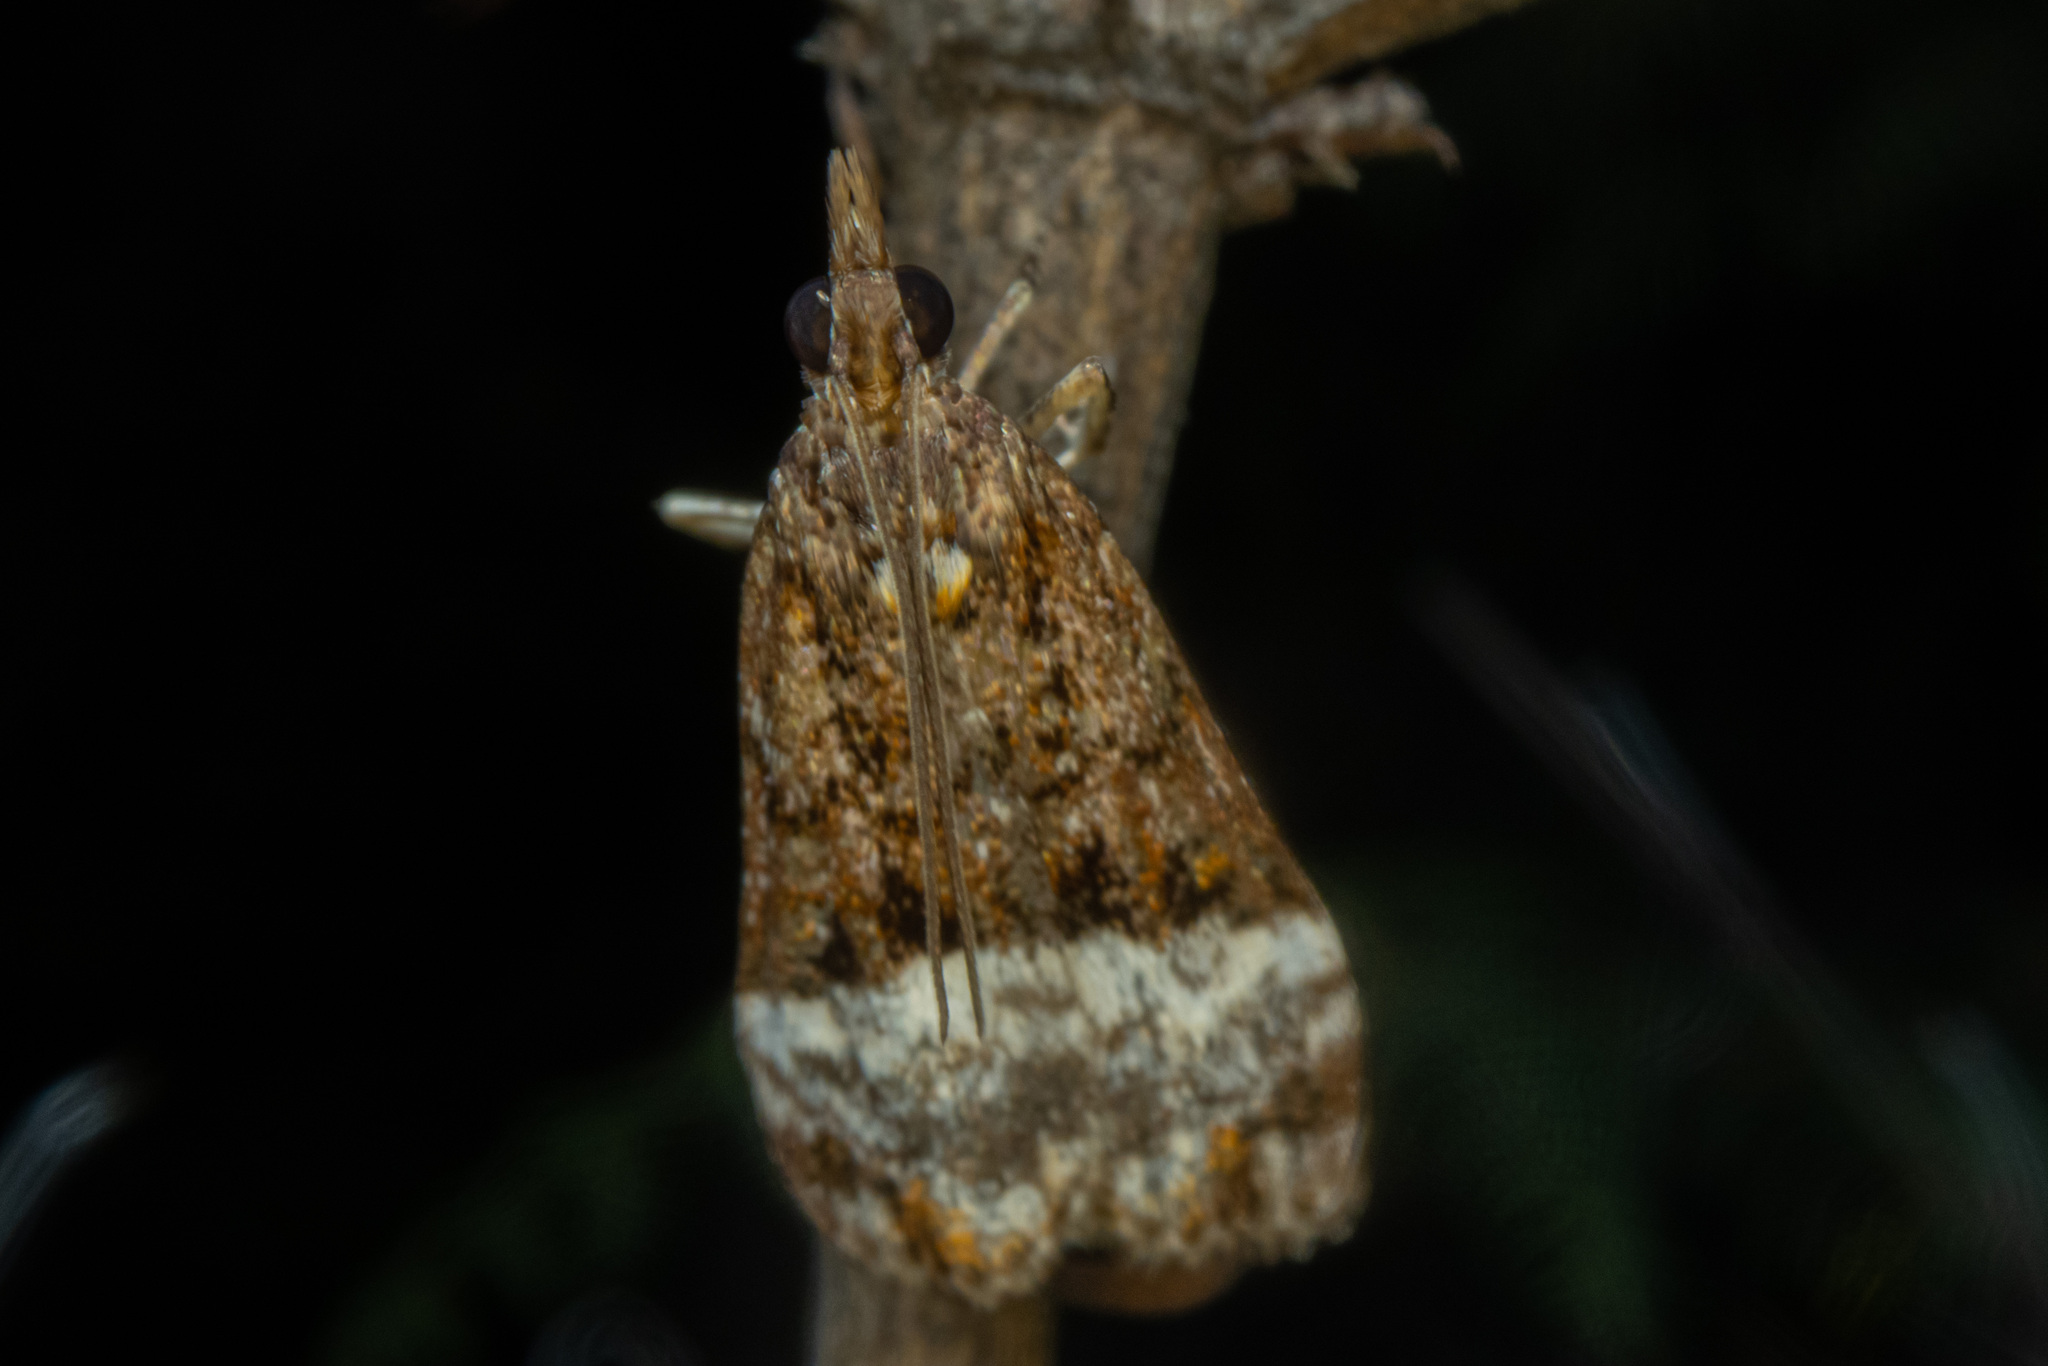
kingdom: Animalia
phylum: Arthropoda
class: Insecta
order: Lepidoptera
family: Crambidae
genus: Scoparia
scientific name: Scoparia minusculalis
